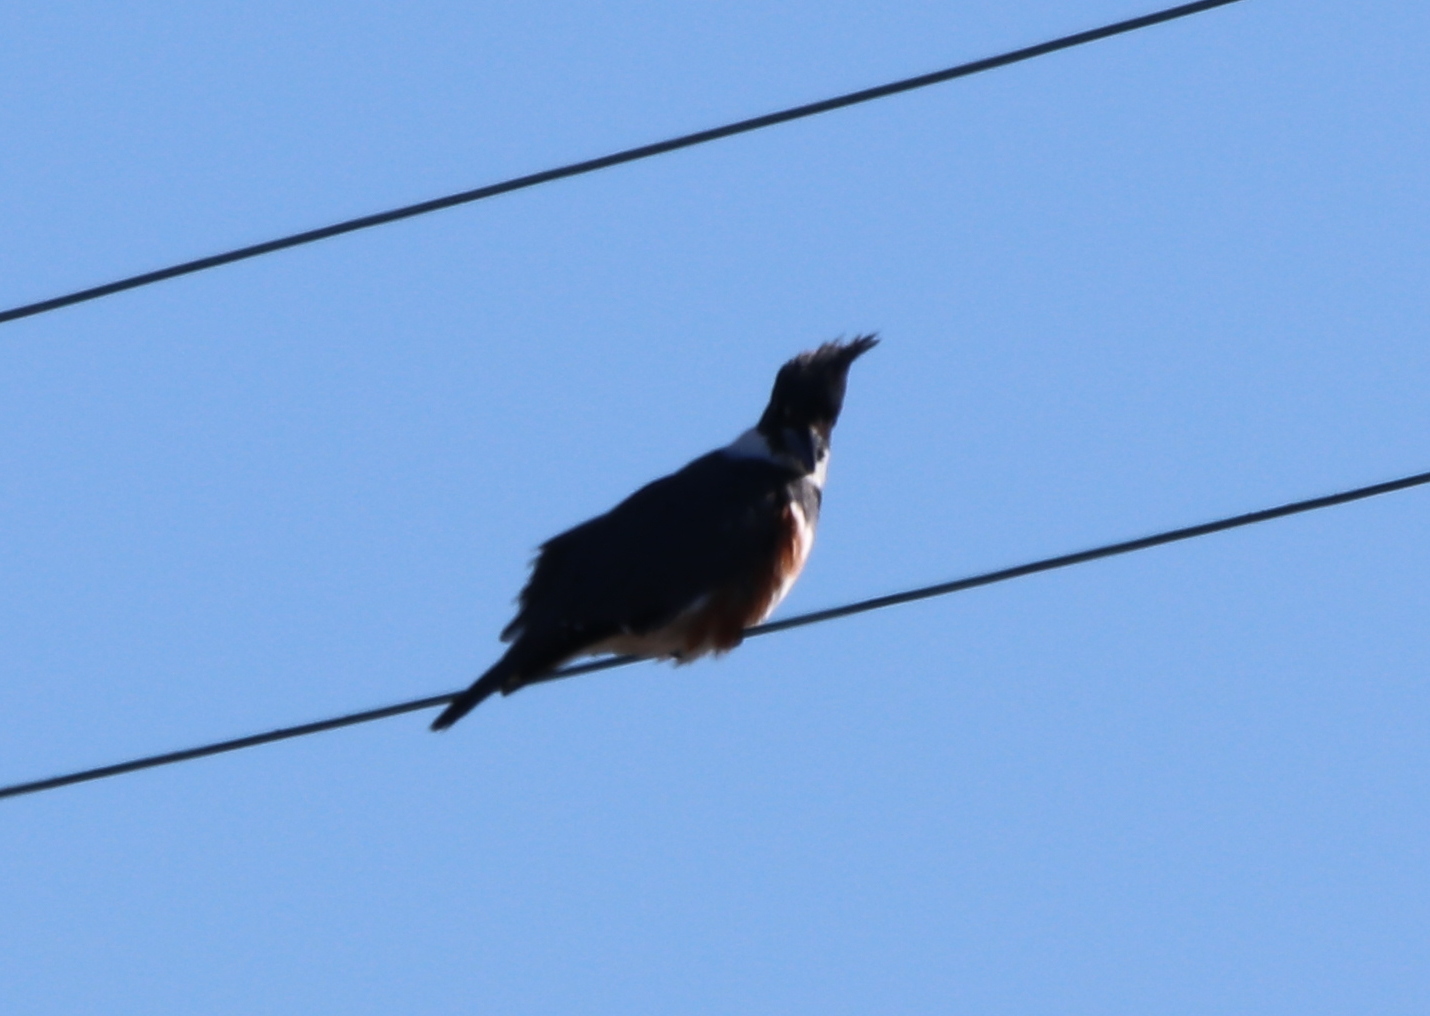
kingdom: Animalia
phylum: Chordata
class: Aves
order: Coraciiformes
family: Alcedinidae
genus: Megaceryle
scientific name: Megaceryle alcyon
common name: Belted kingfisher
